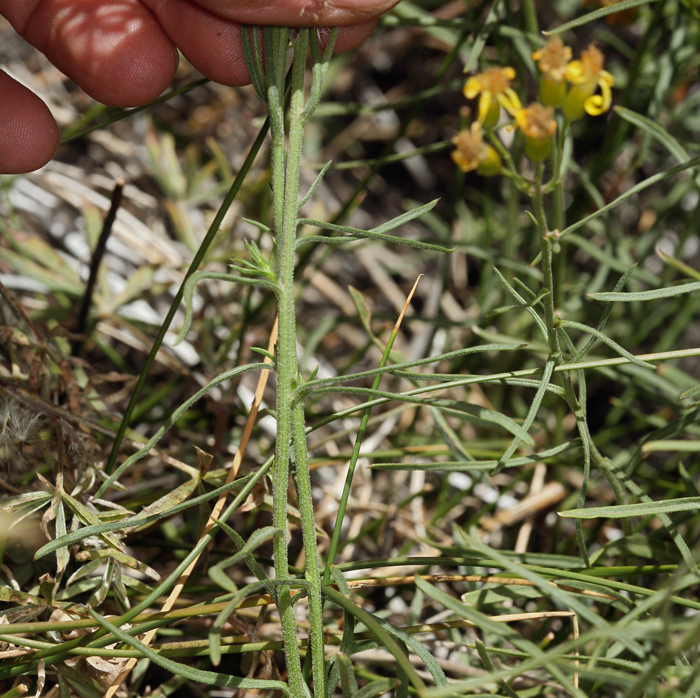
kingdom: Plantae
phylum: Tracheophyta
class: Magnoliopsida
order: Asterales
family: Asteraceae
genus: Senecio
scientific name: Senecio spartioides
